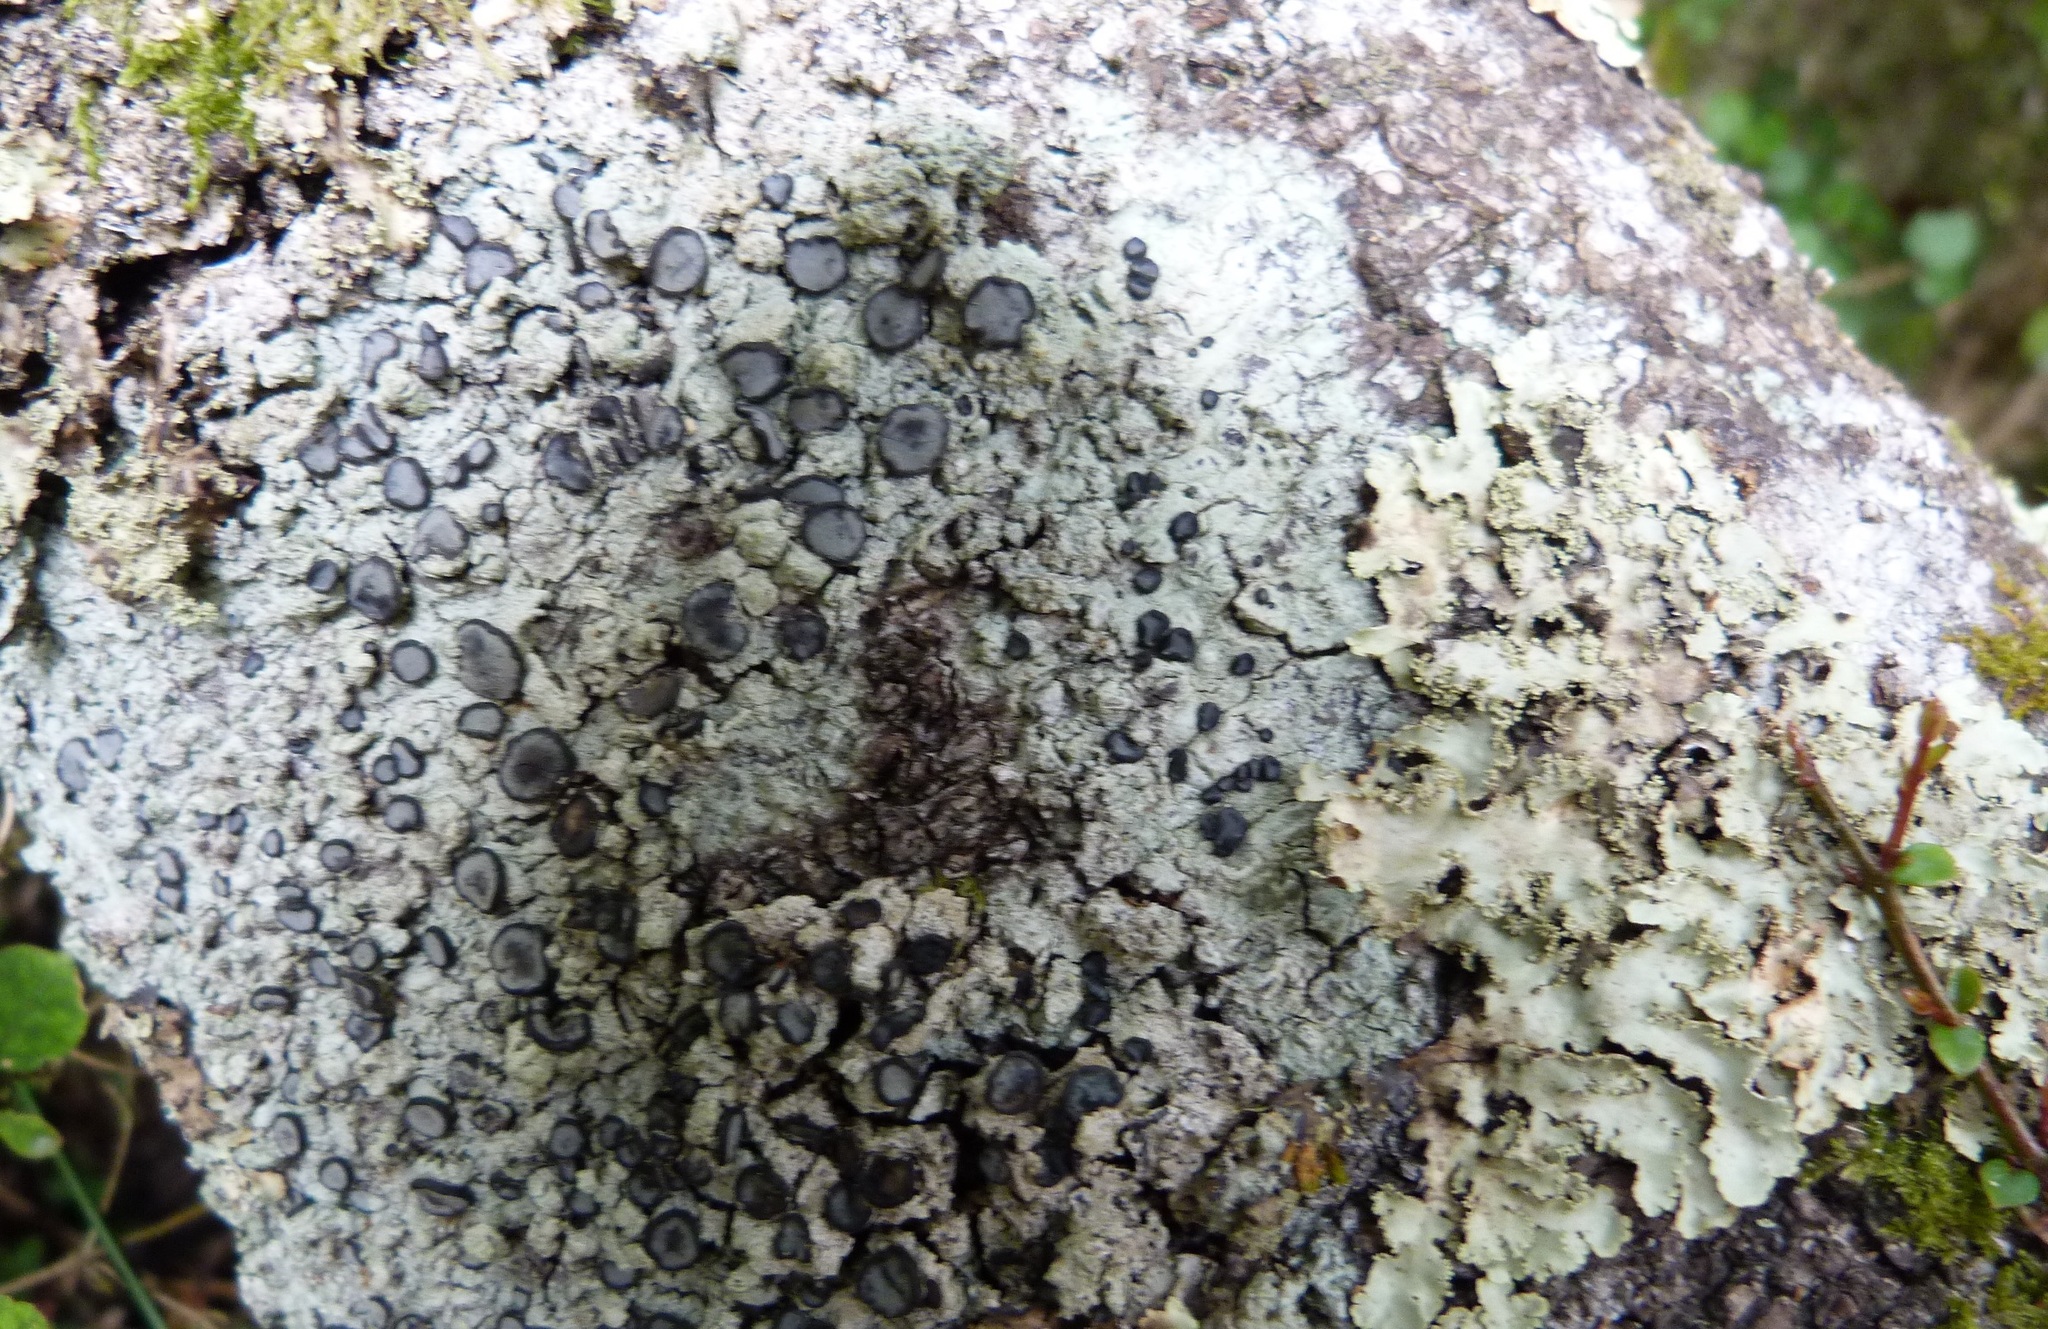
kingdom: Fungi
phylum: Ascomycota
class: Lecanoromycetes
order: Teloschistales
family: Megalosporaceae
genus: Megalospora
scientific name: Megalospora gompholoma
